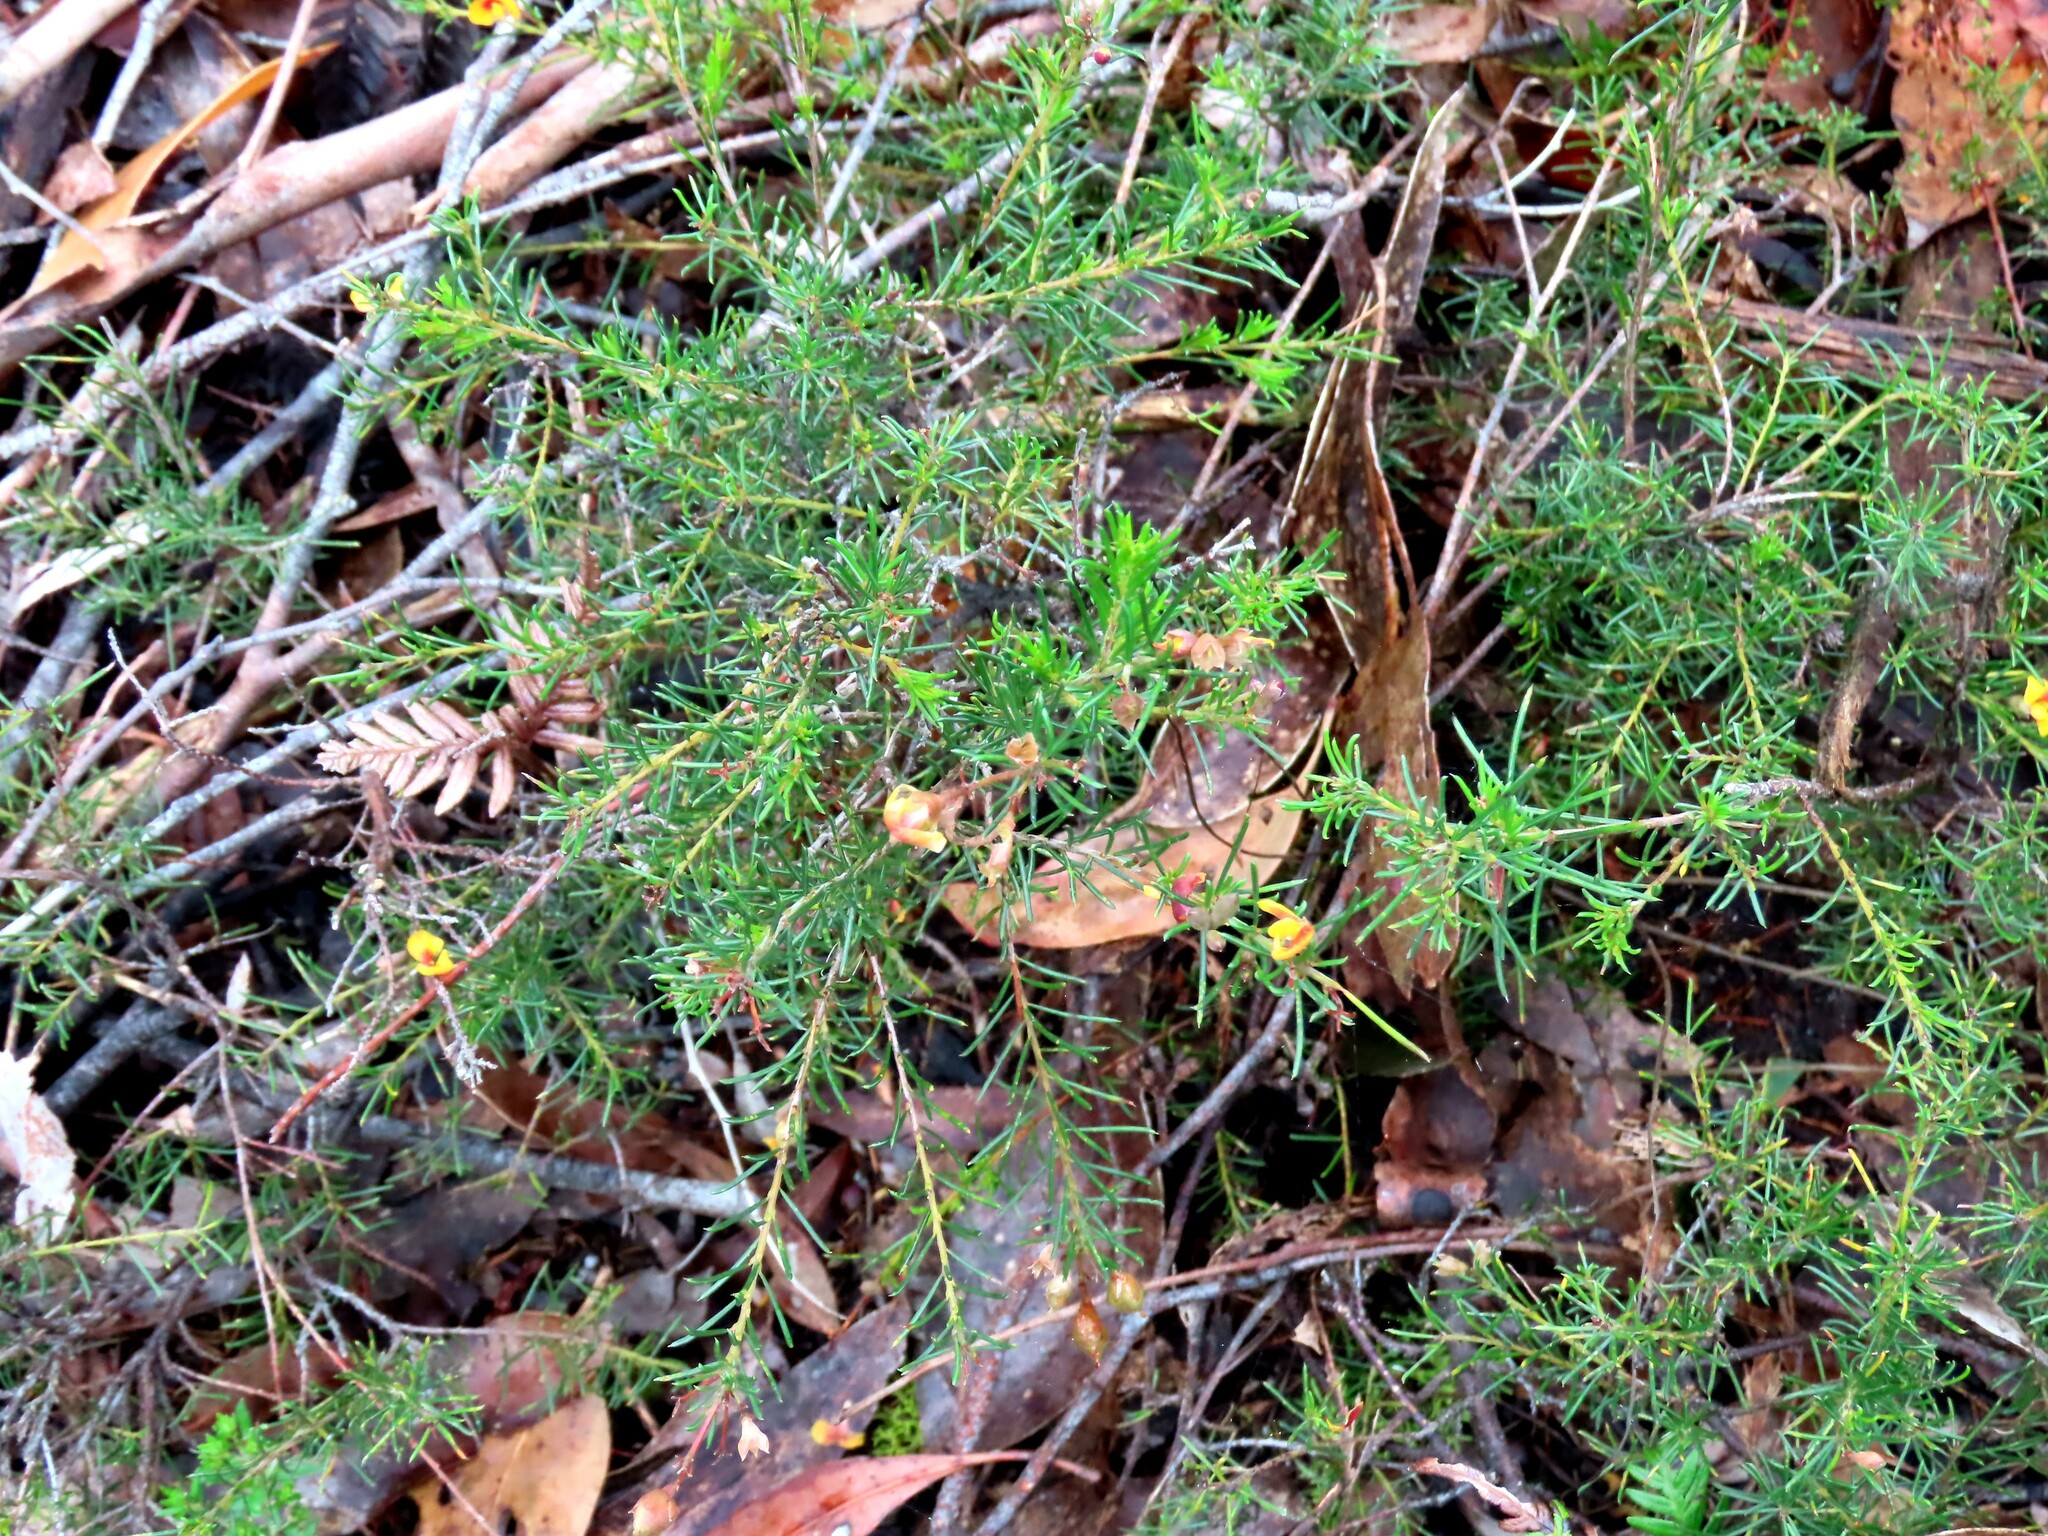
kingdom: Plantae
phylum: Tracheophyta
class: Magnoliopsida
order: Fabales
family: Fabaceae
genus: Dillwynia
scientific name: Dillwynia glaberrima
